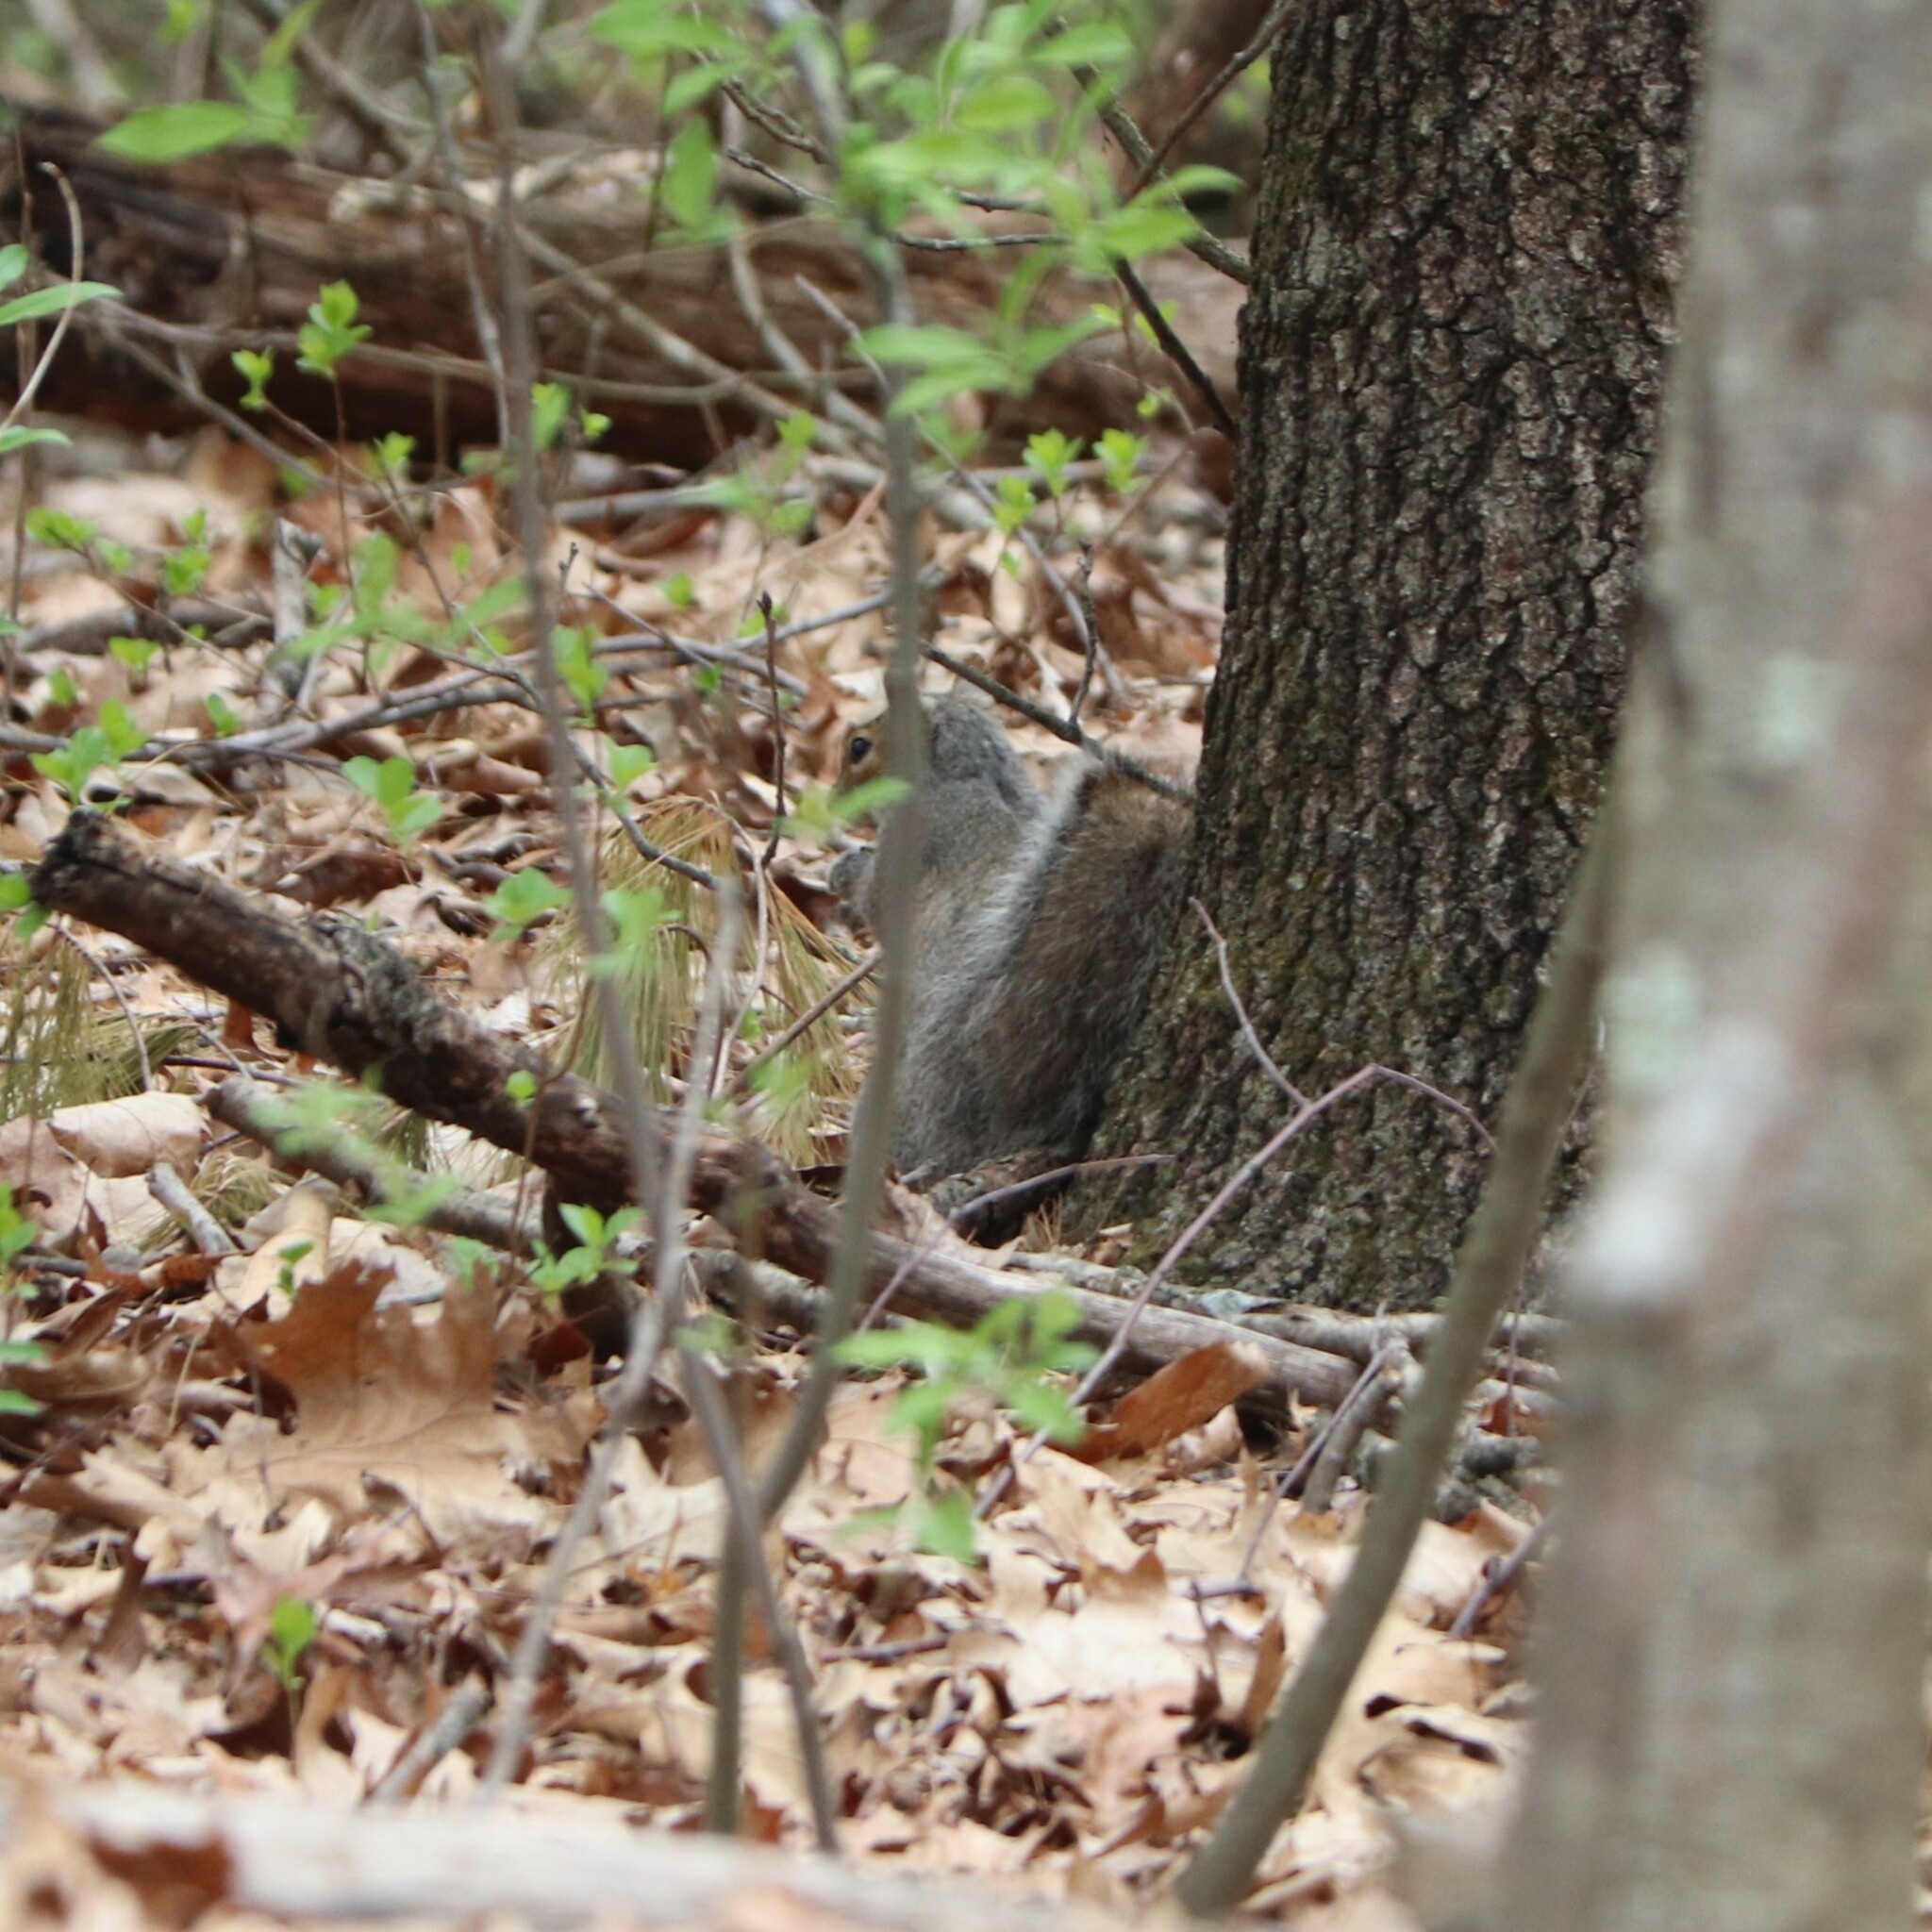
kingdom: Animalia
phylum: Chordata
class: Mammalia
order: Rodentia
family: Sciuridae
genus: Sciurus
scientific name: Sciurus carolinensis
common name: Eastern gray squirrel
